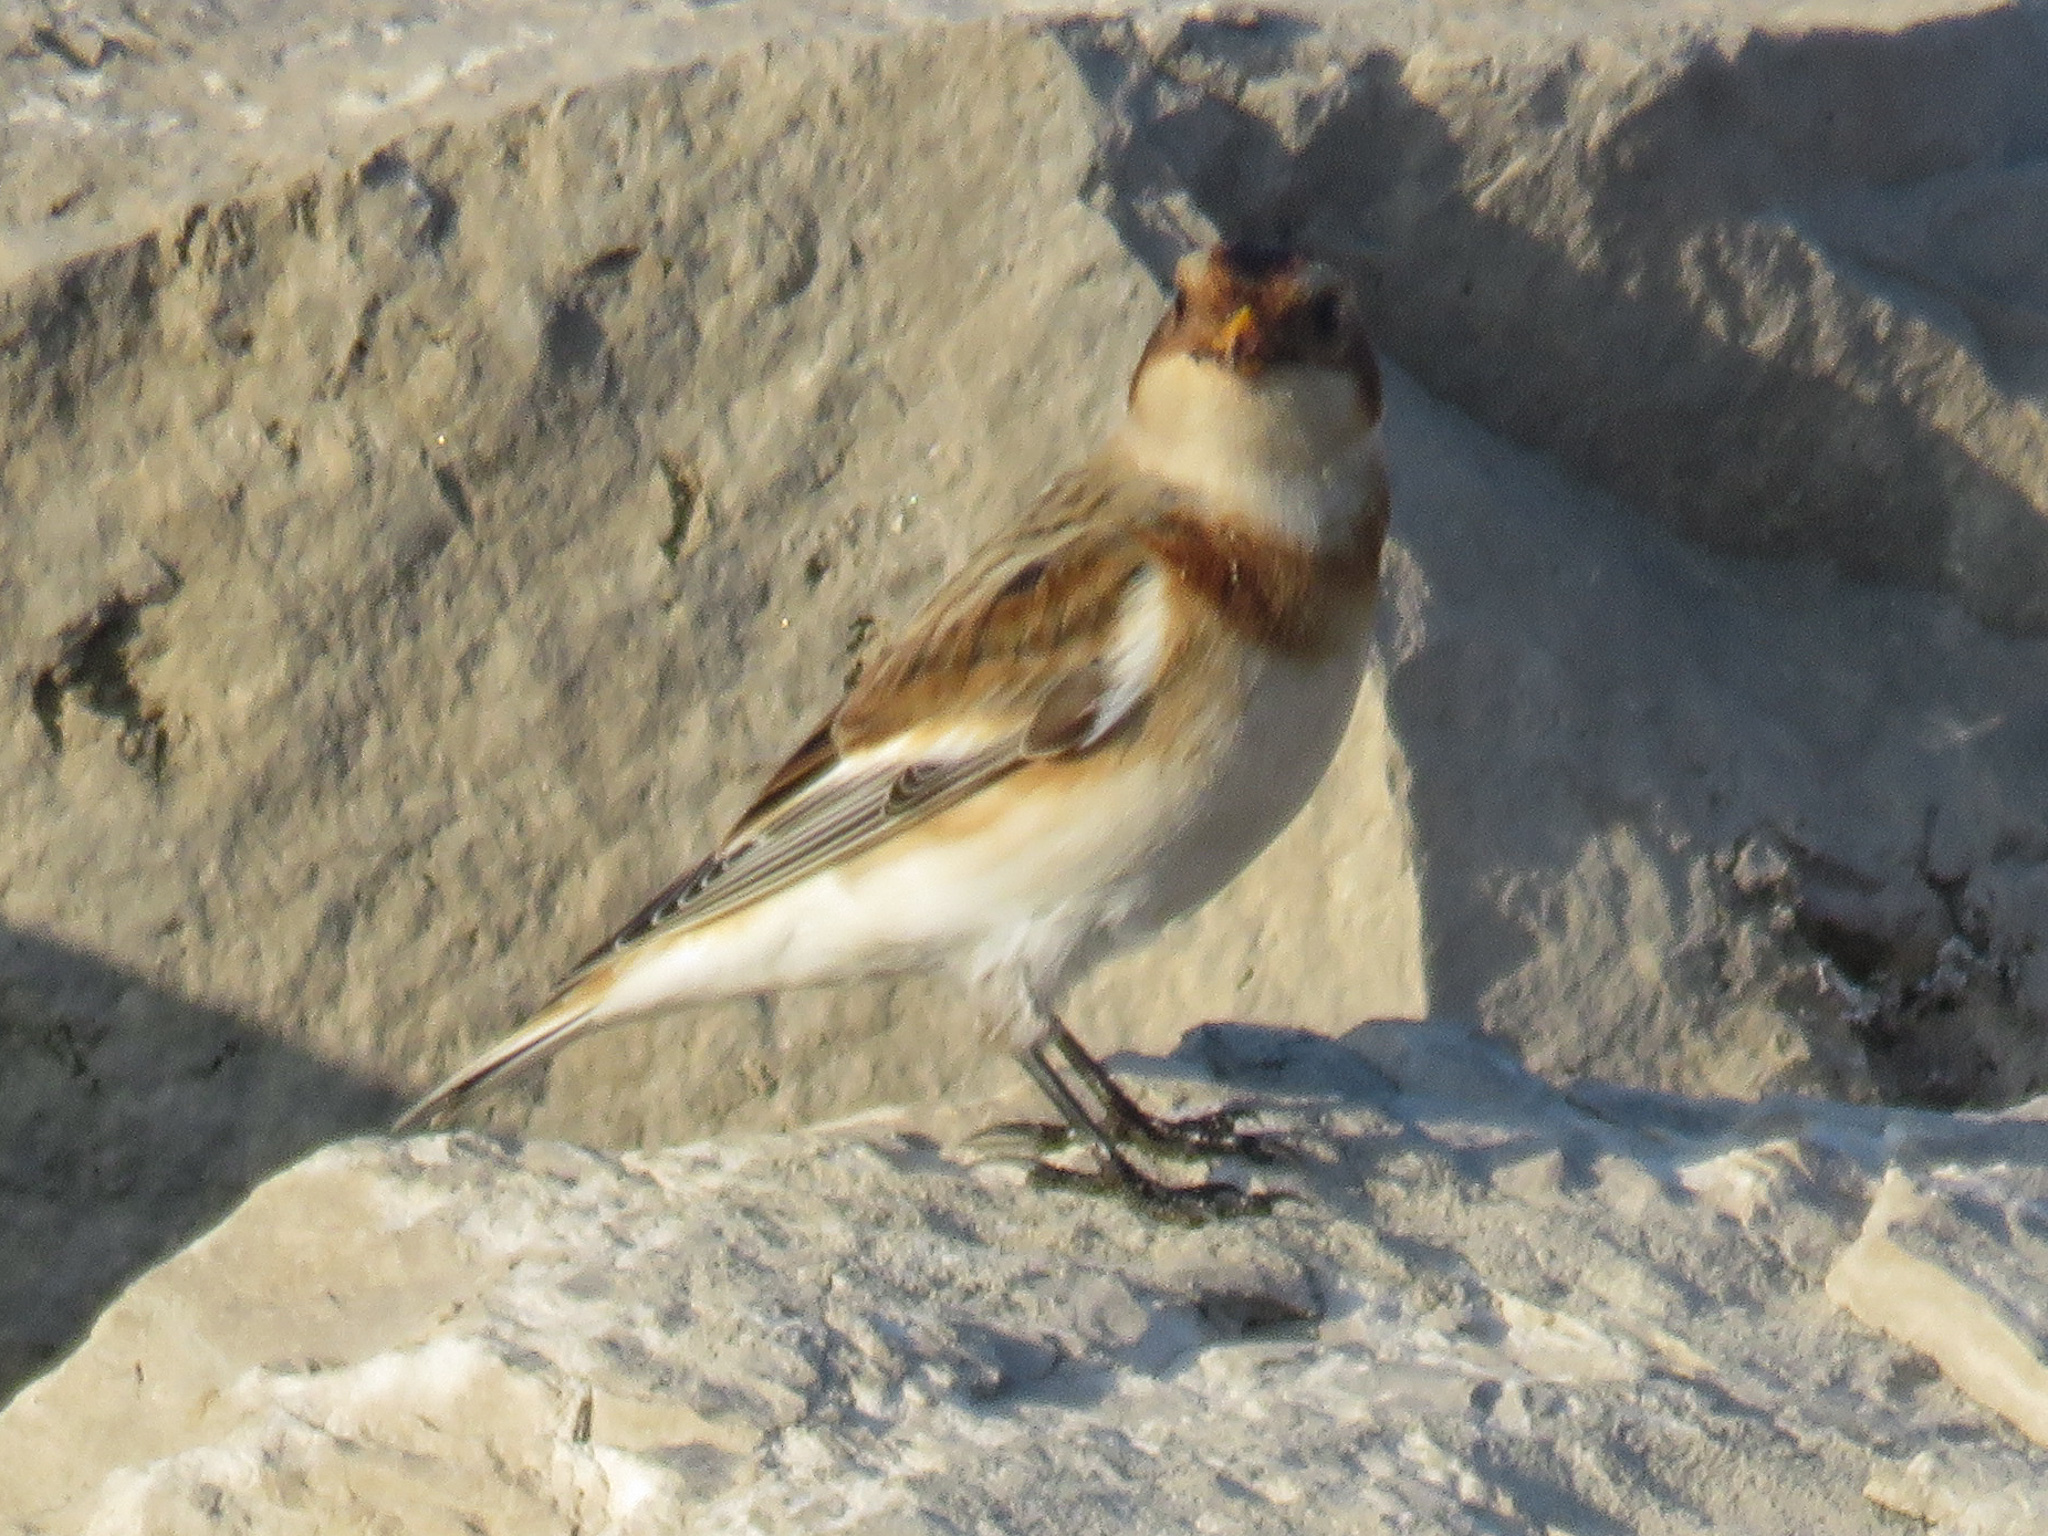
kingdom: Animalia
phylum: Chordata
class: Aves
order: Passeriformes
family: Calcariidae
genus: Plectrophenax
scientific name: Plectrophenax nivalis
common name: Snow bunting
